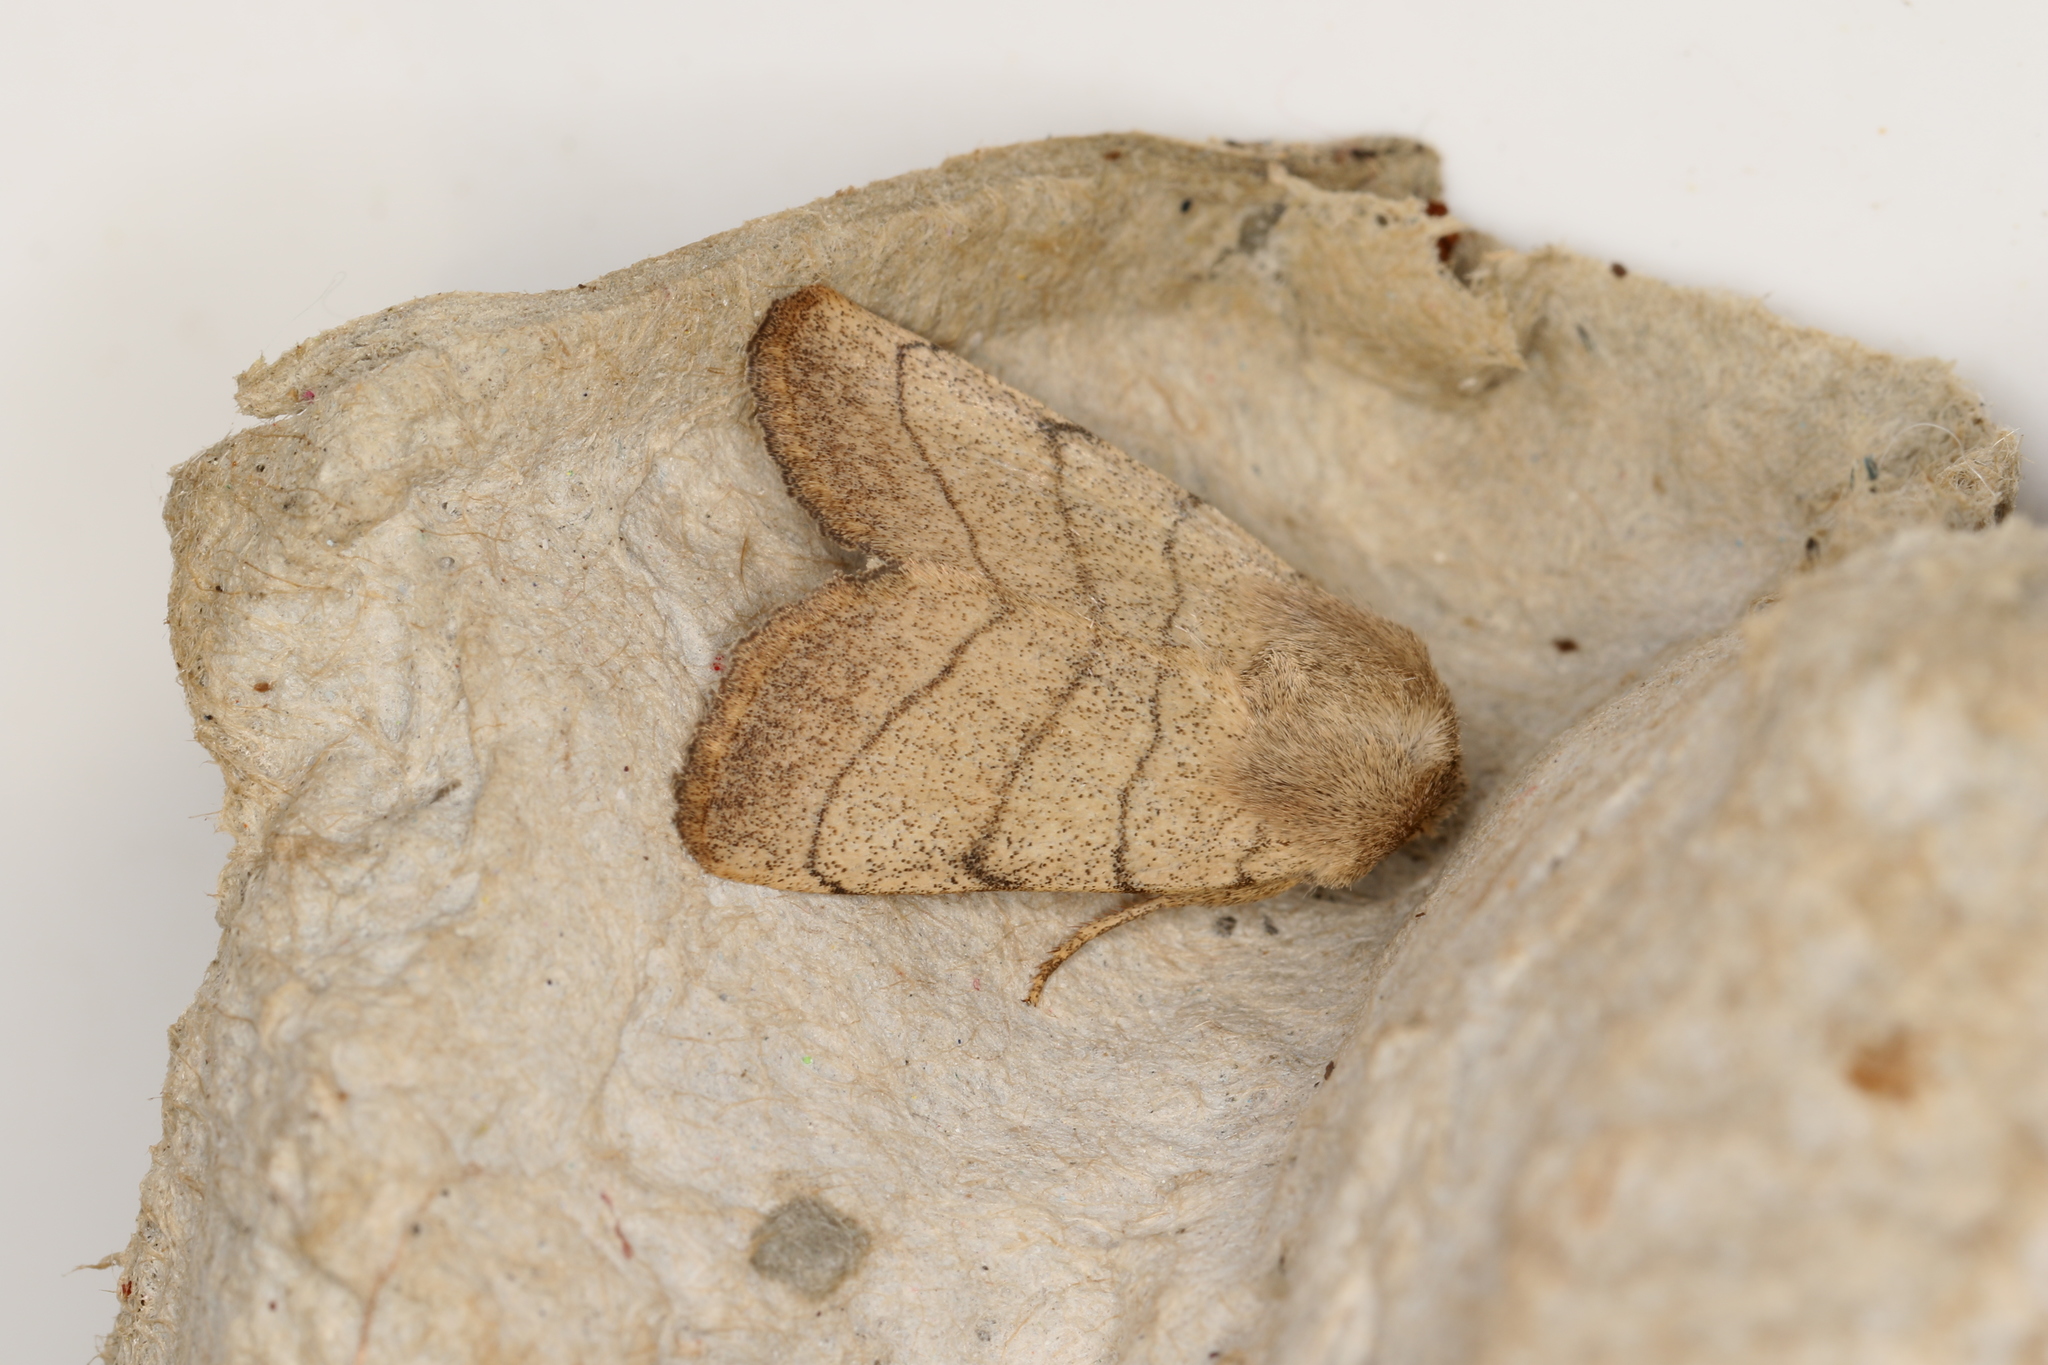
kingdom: Animalia
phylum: Arthropoda
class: Insecta
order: Lepidoptera
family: Noctuidae
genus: Charanyca
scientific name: Charanyca trigrammica
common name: Treble lines
